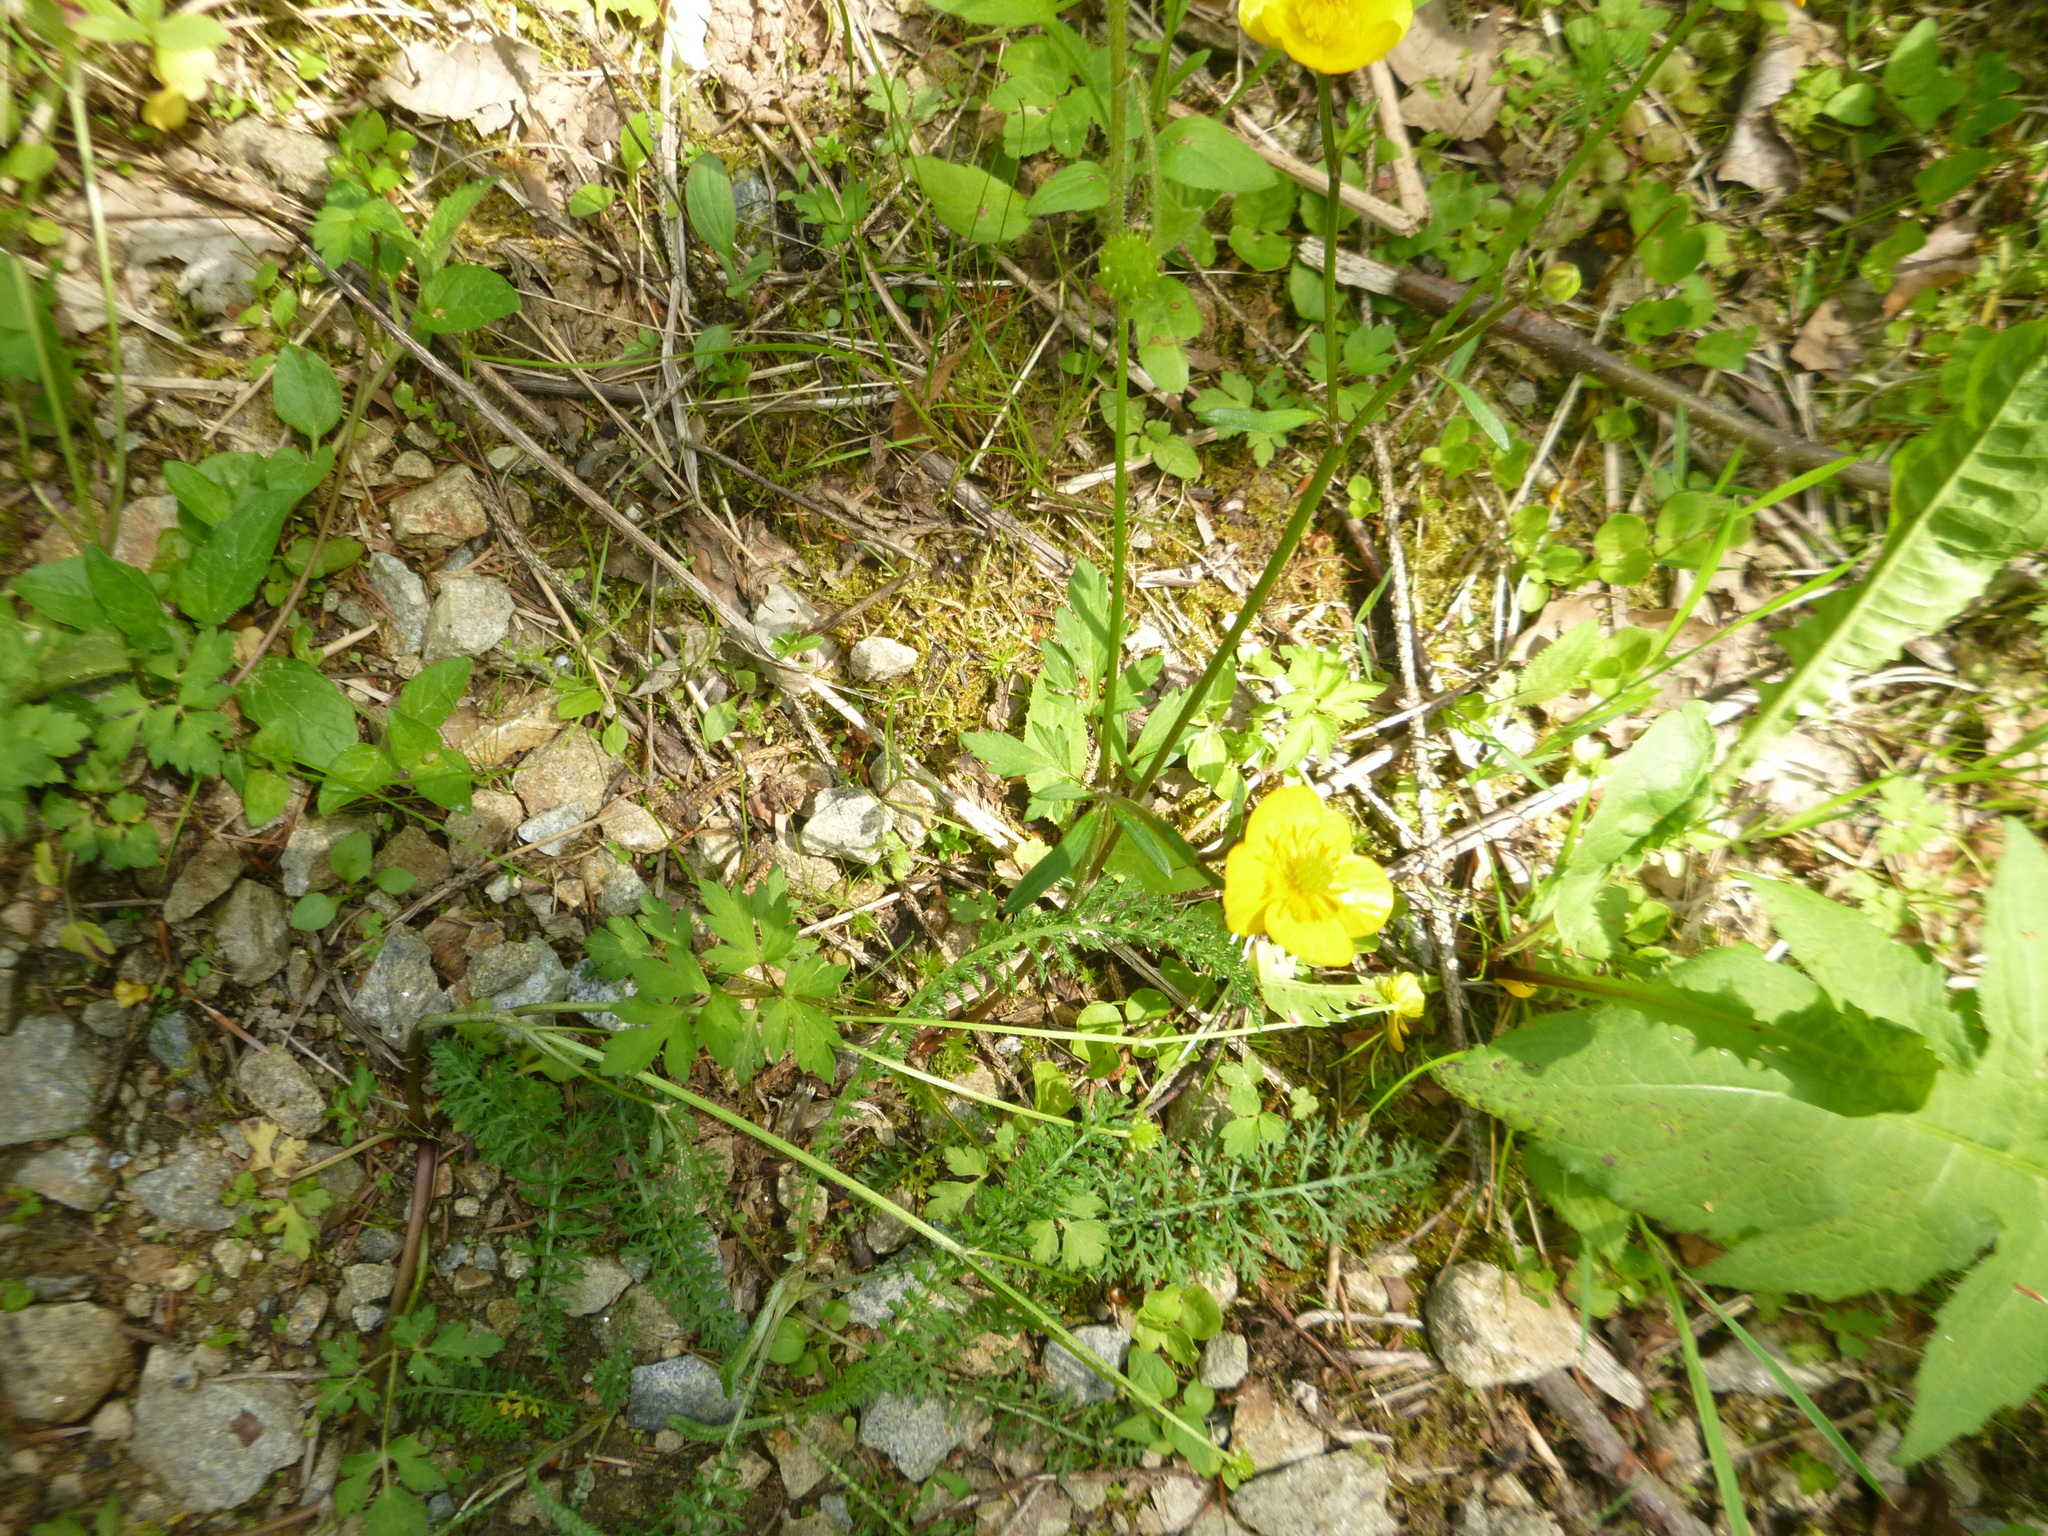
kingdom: Plantae
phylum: Tracheophyta
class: Magnoliopsida
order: Ranunculales
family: Ranunculaceae
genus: Ranunculus
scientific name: Ranunculus repens
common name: Creeping buttercup
